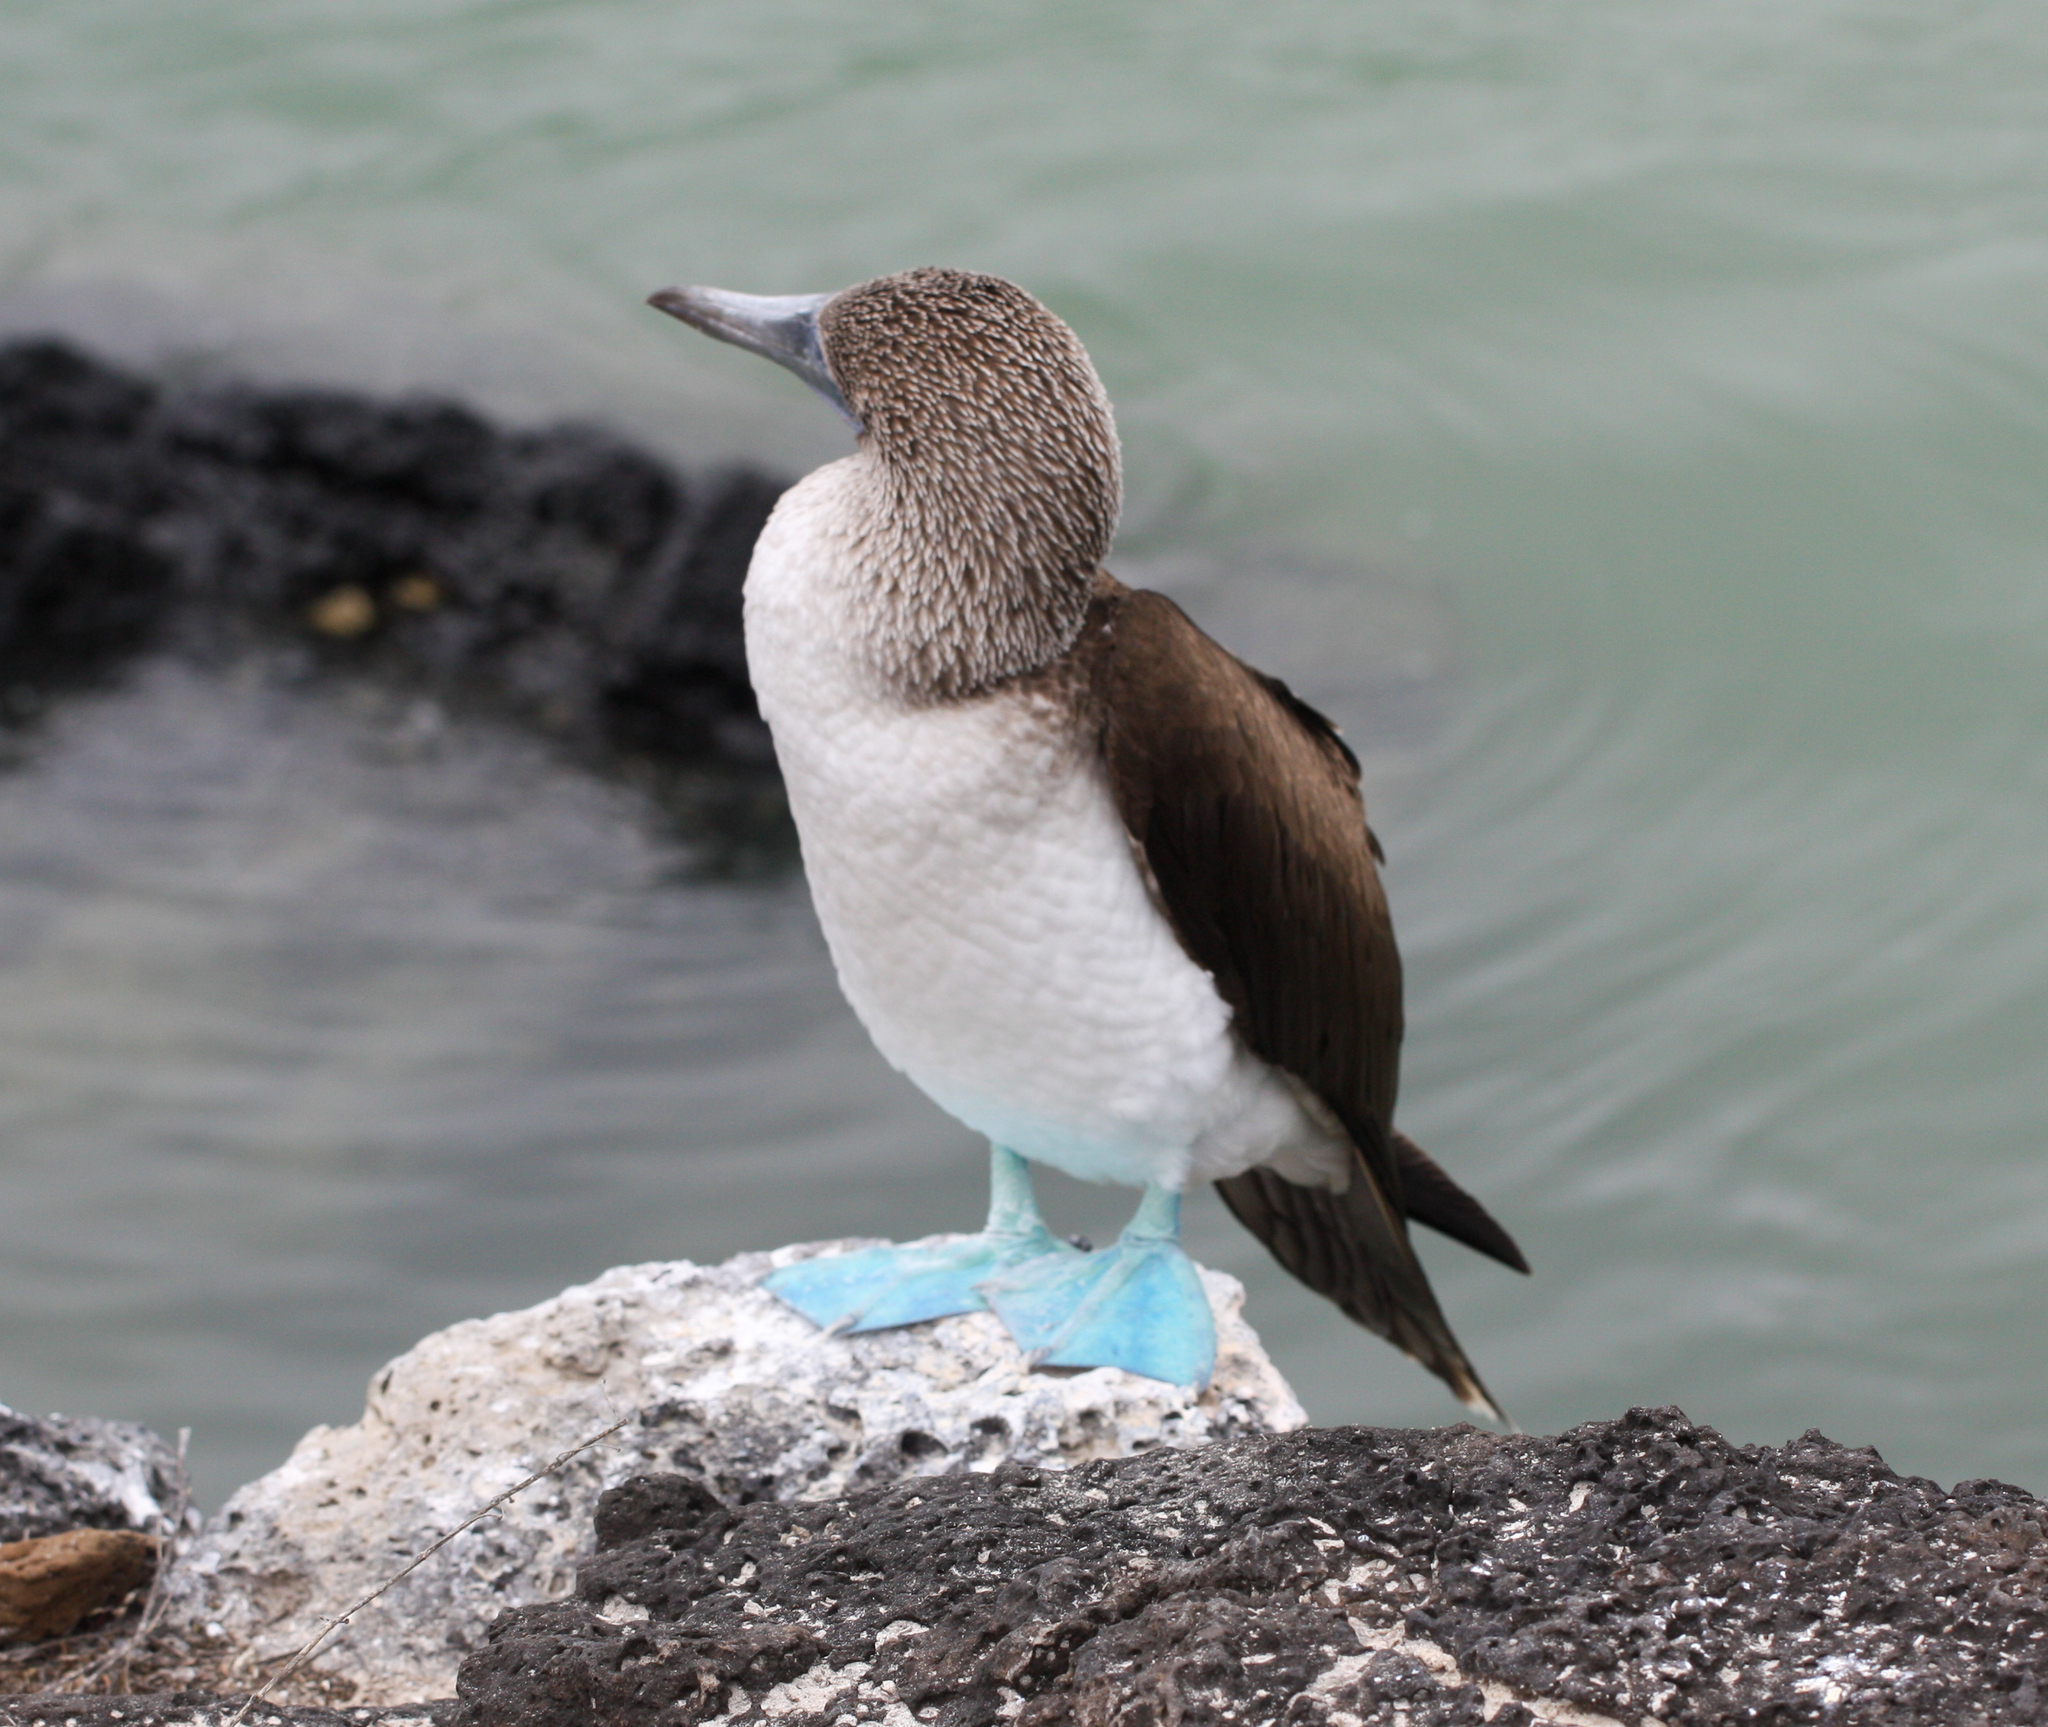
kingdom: Animalia
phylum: Chordata
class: Aves
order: Suliformes
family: Sulidae
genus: Sula
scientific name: Sula nebouxii
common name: Blue-footed booby
